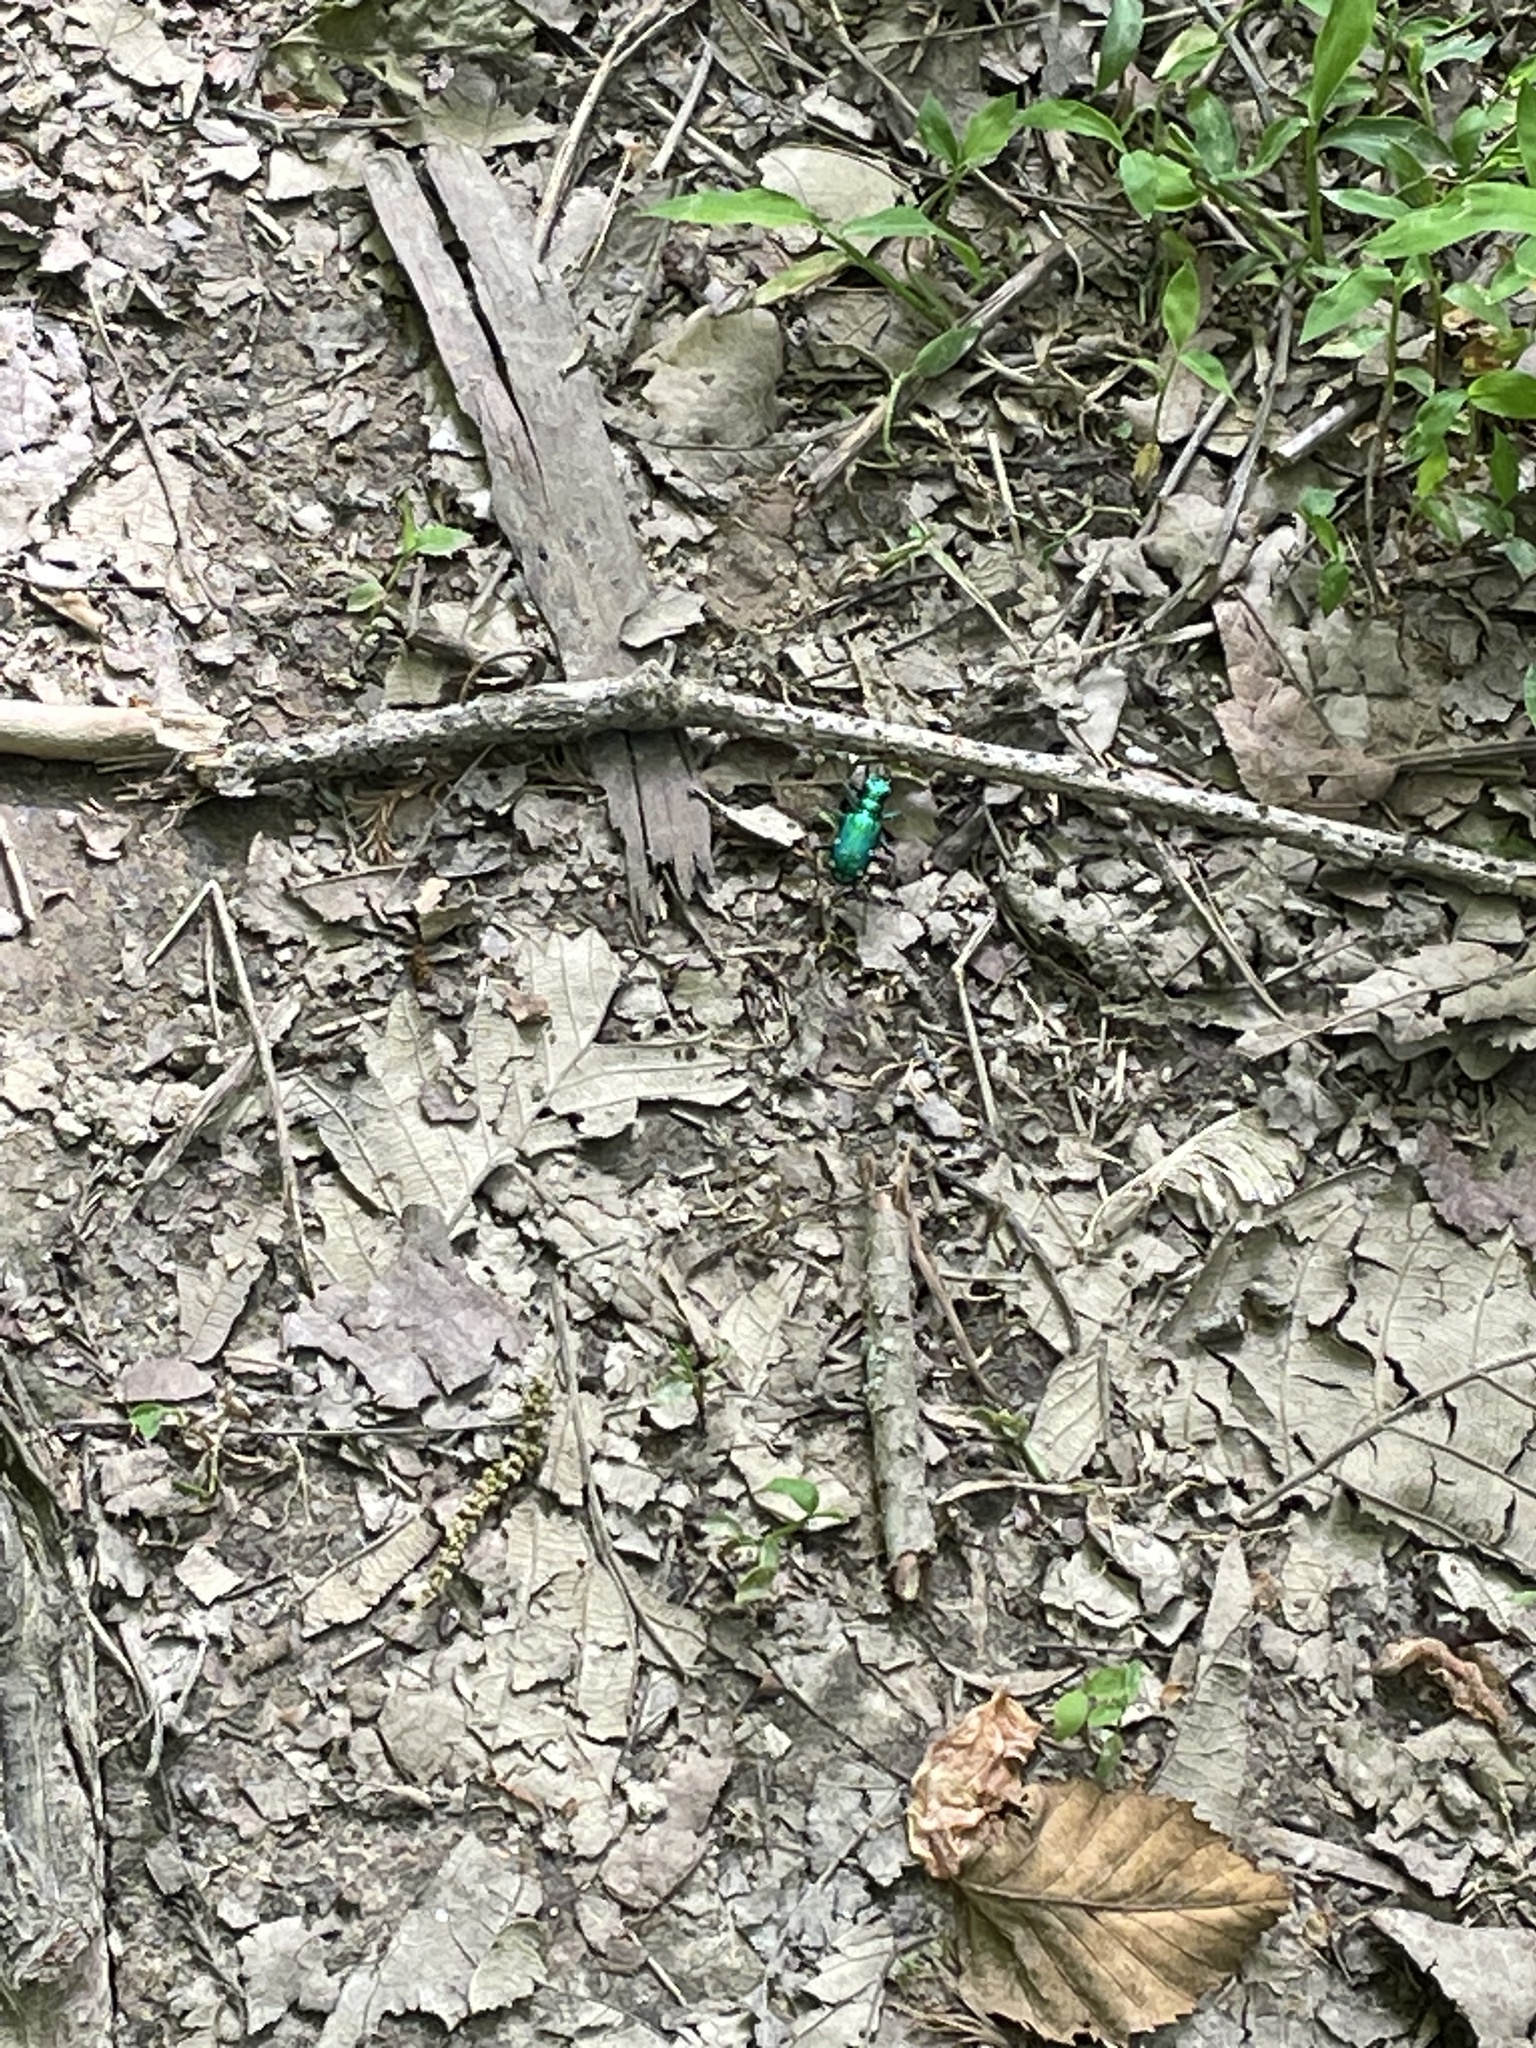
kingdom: Animalia
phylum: Arthropoda
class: Insecta
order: Coleoptera
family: Carabidae
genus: Cicindela
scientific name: Cicindela sexguttata
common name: Six-spotted tiger beetle
